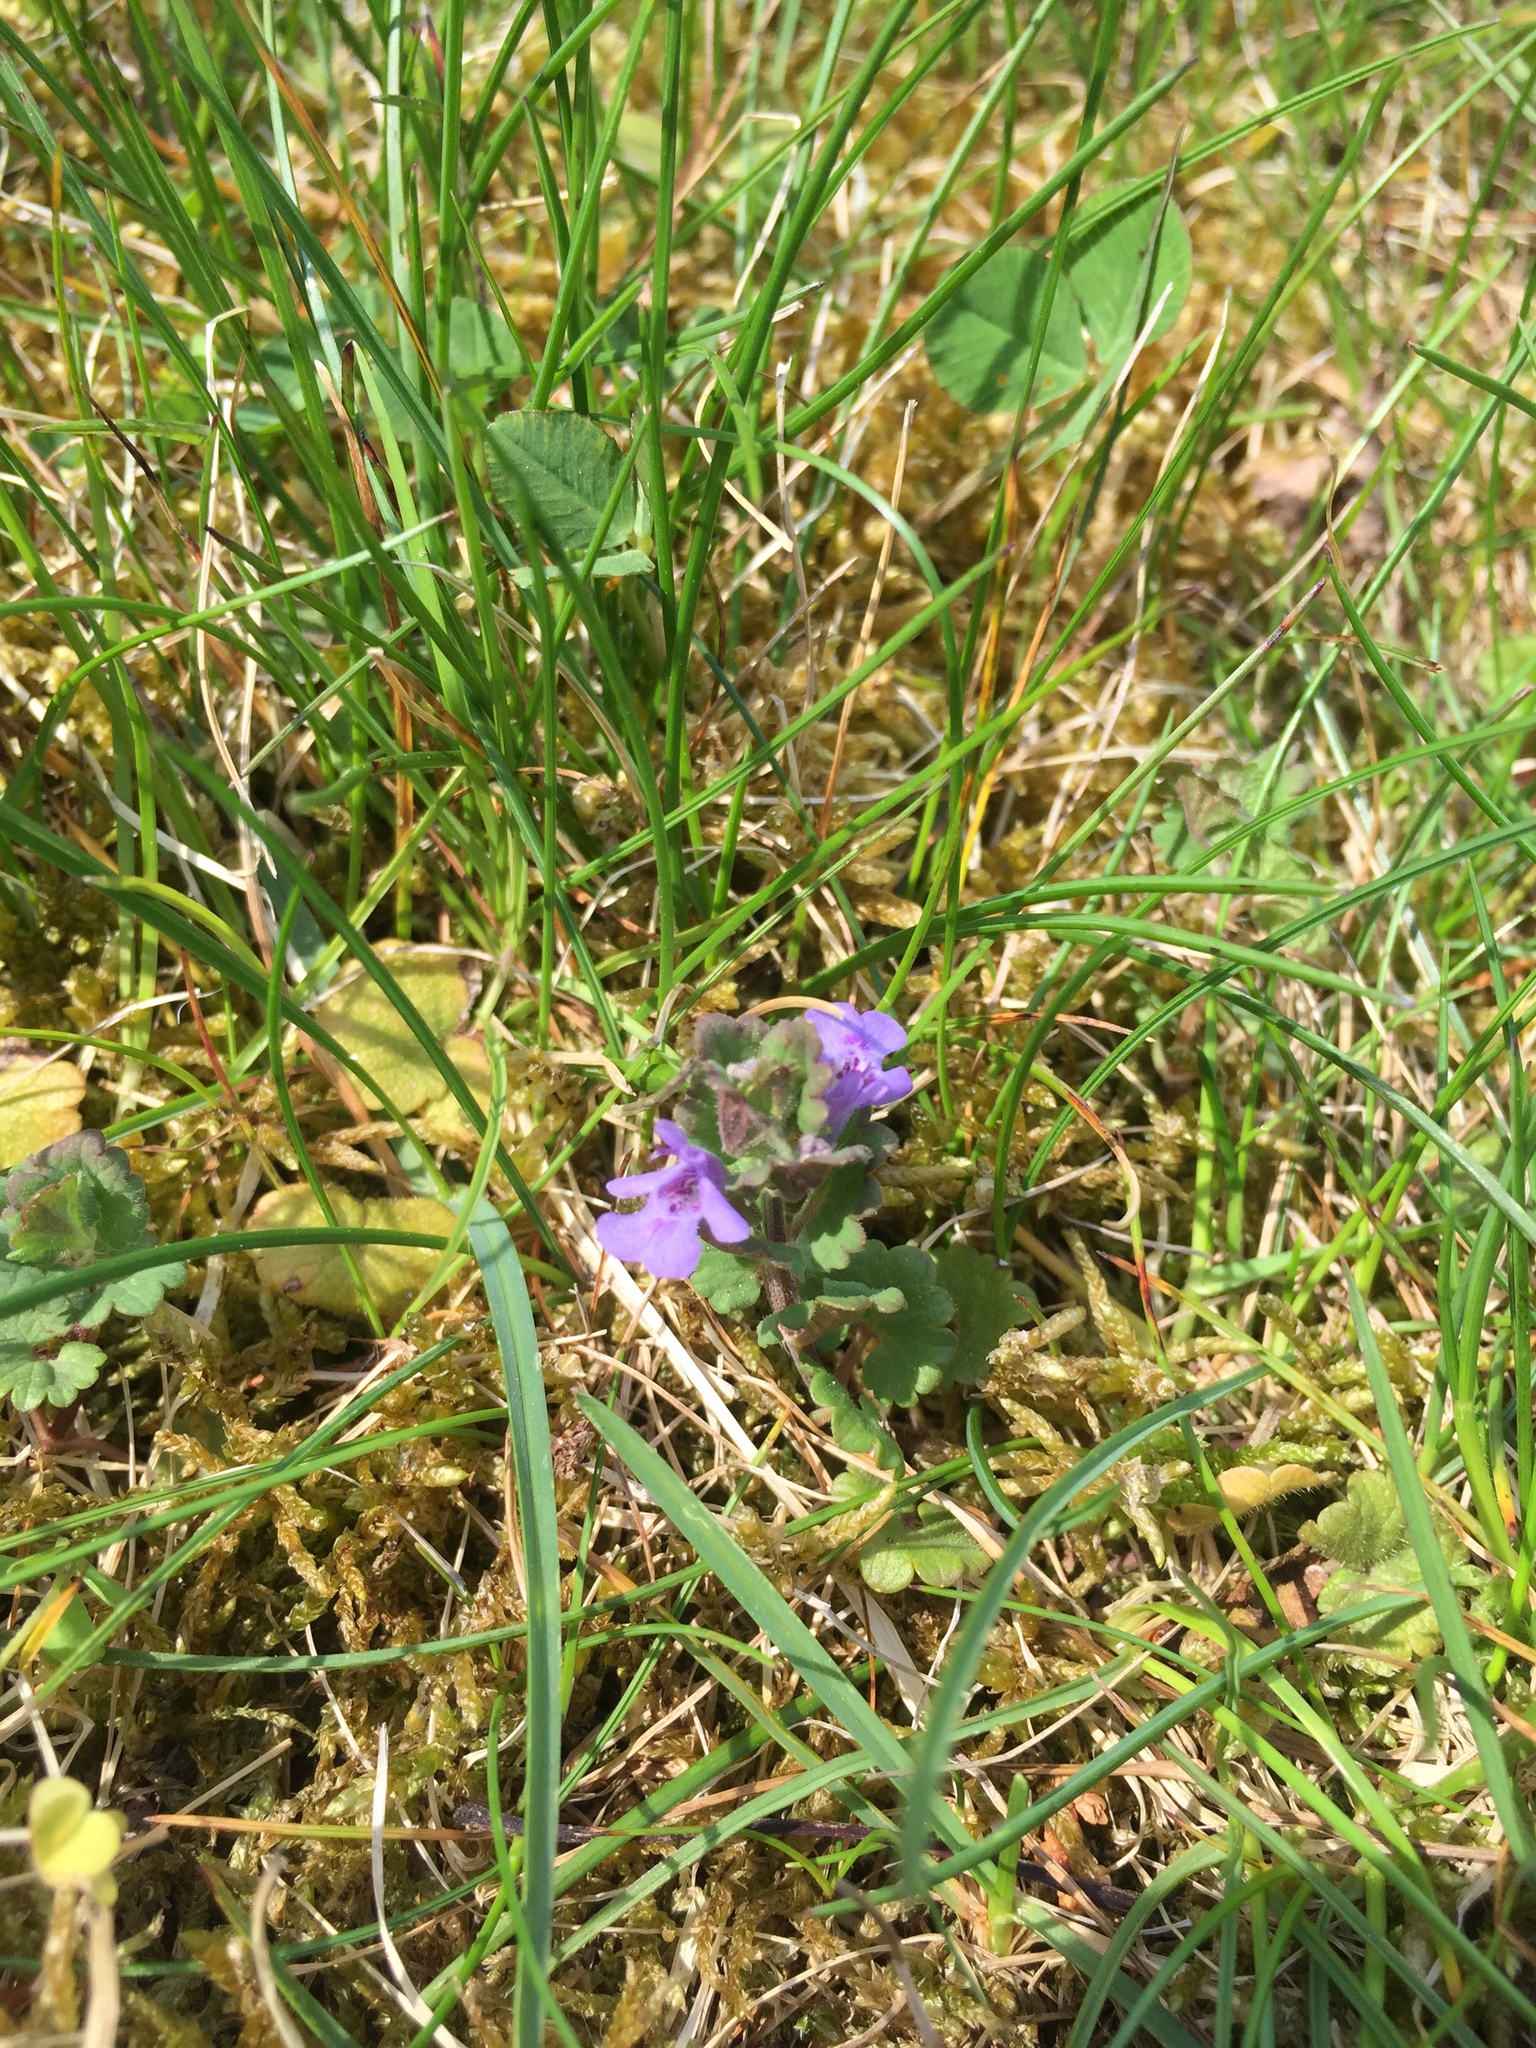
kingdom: Plantae
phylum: Tracheophyta
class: Magnoliopsida
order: Lamiales
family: Lamiaceae
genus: Glechoma
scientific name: Glechoma hederacea
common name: Ground ivy
